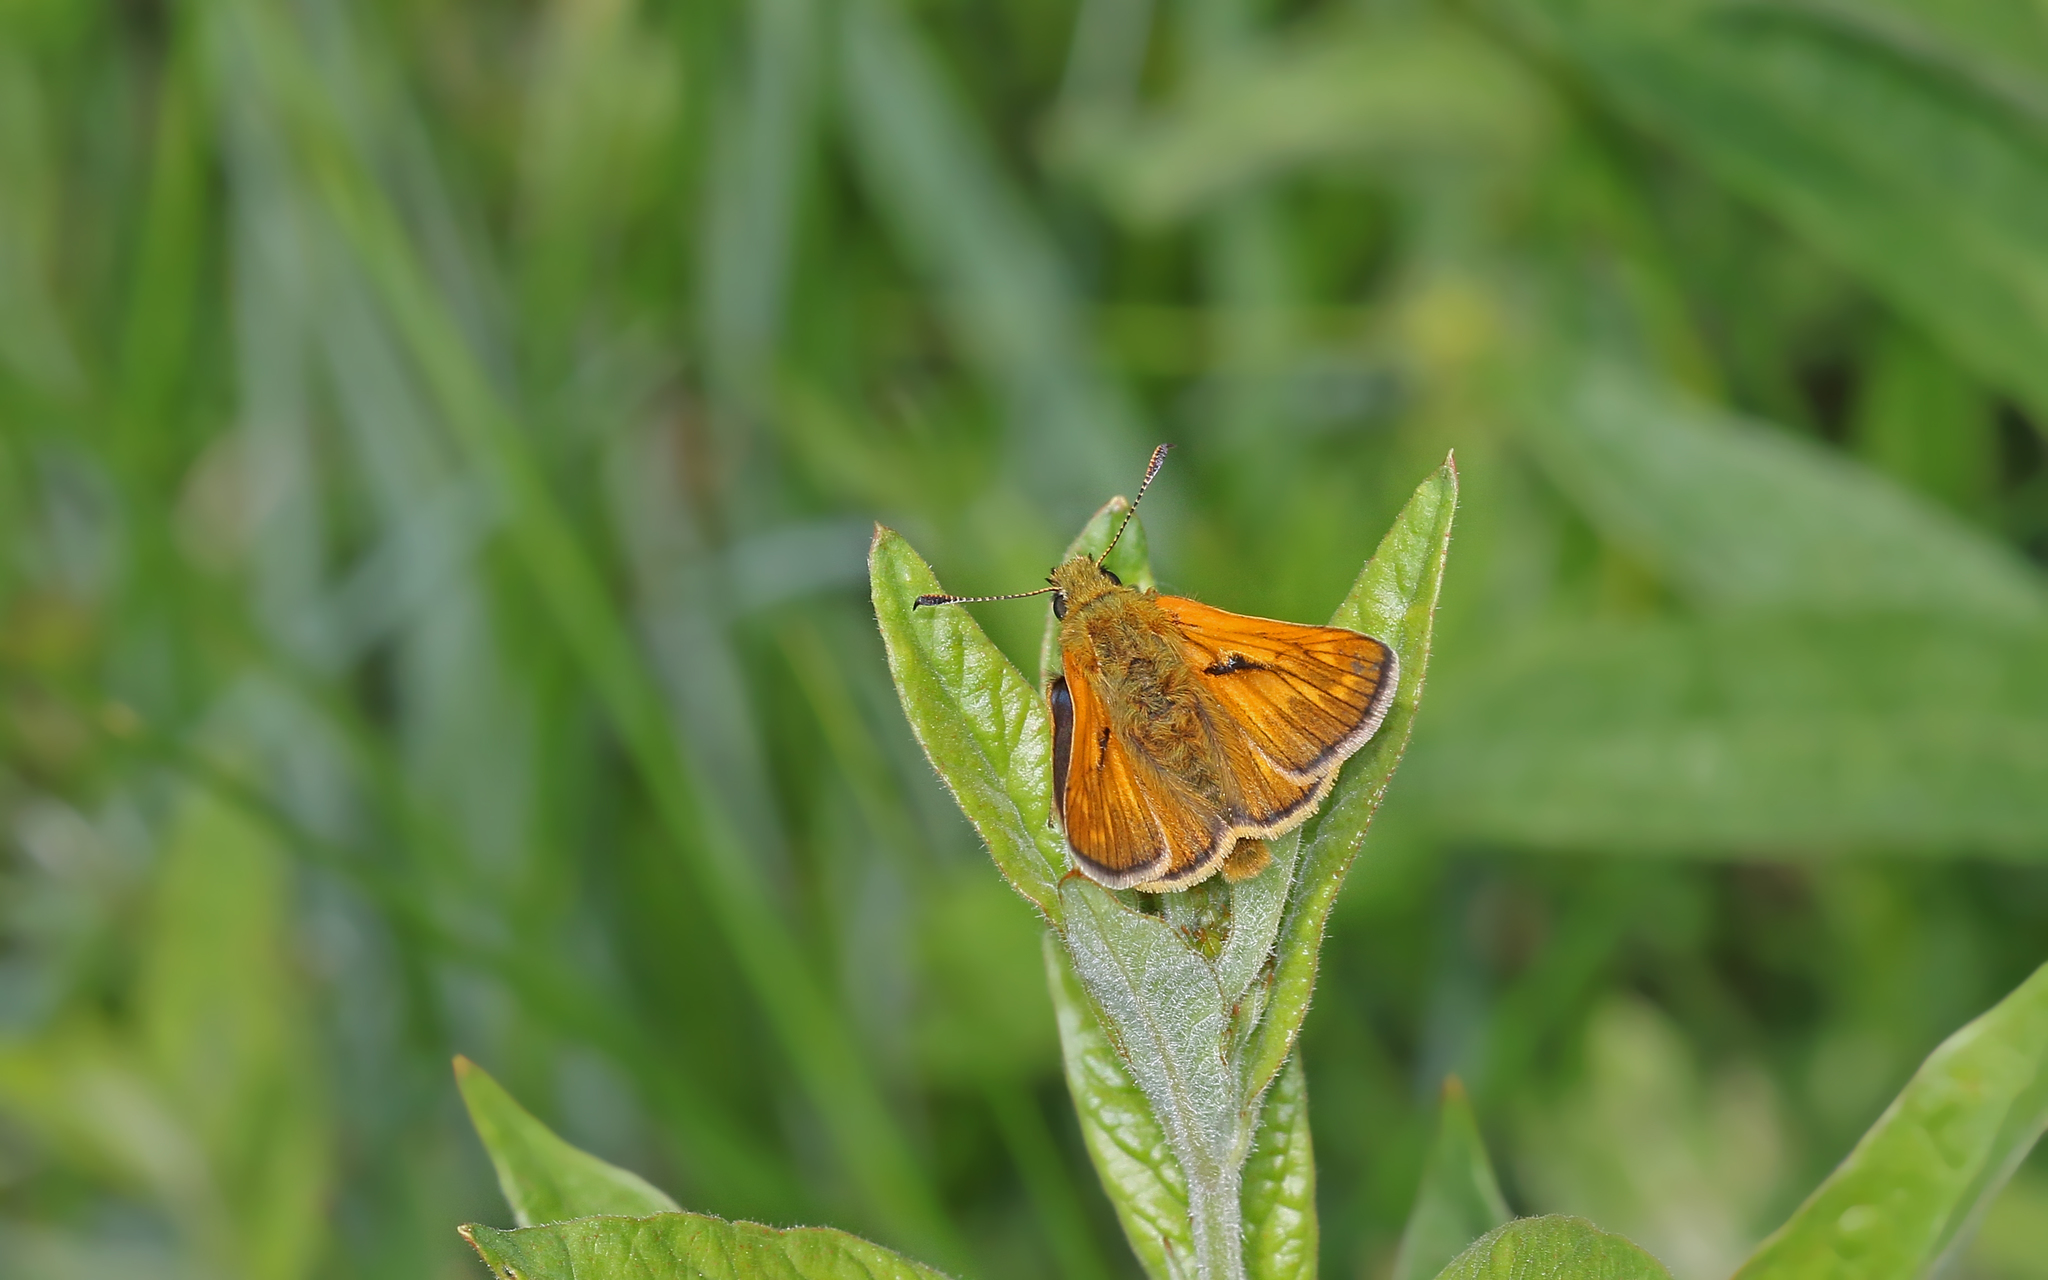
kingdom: Animalia
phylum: Arthropoda
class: Insecta
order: Lepidoptera
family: Hesperiidae
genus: Ochlodes
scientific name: Ochlodes venata
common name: Large skipper
